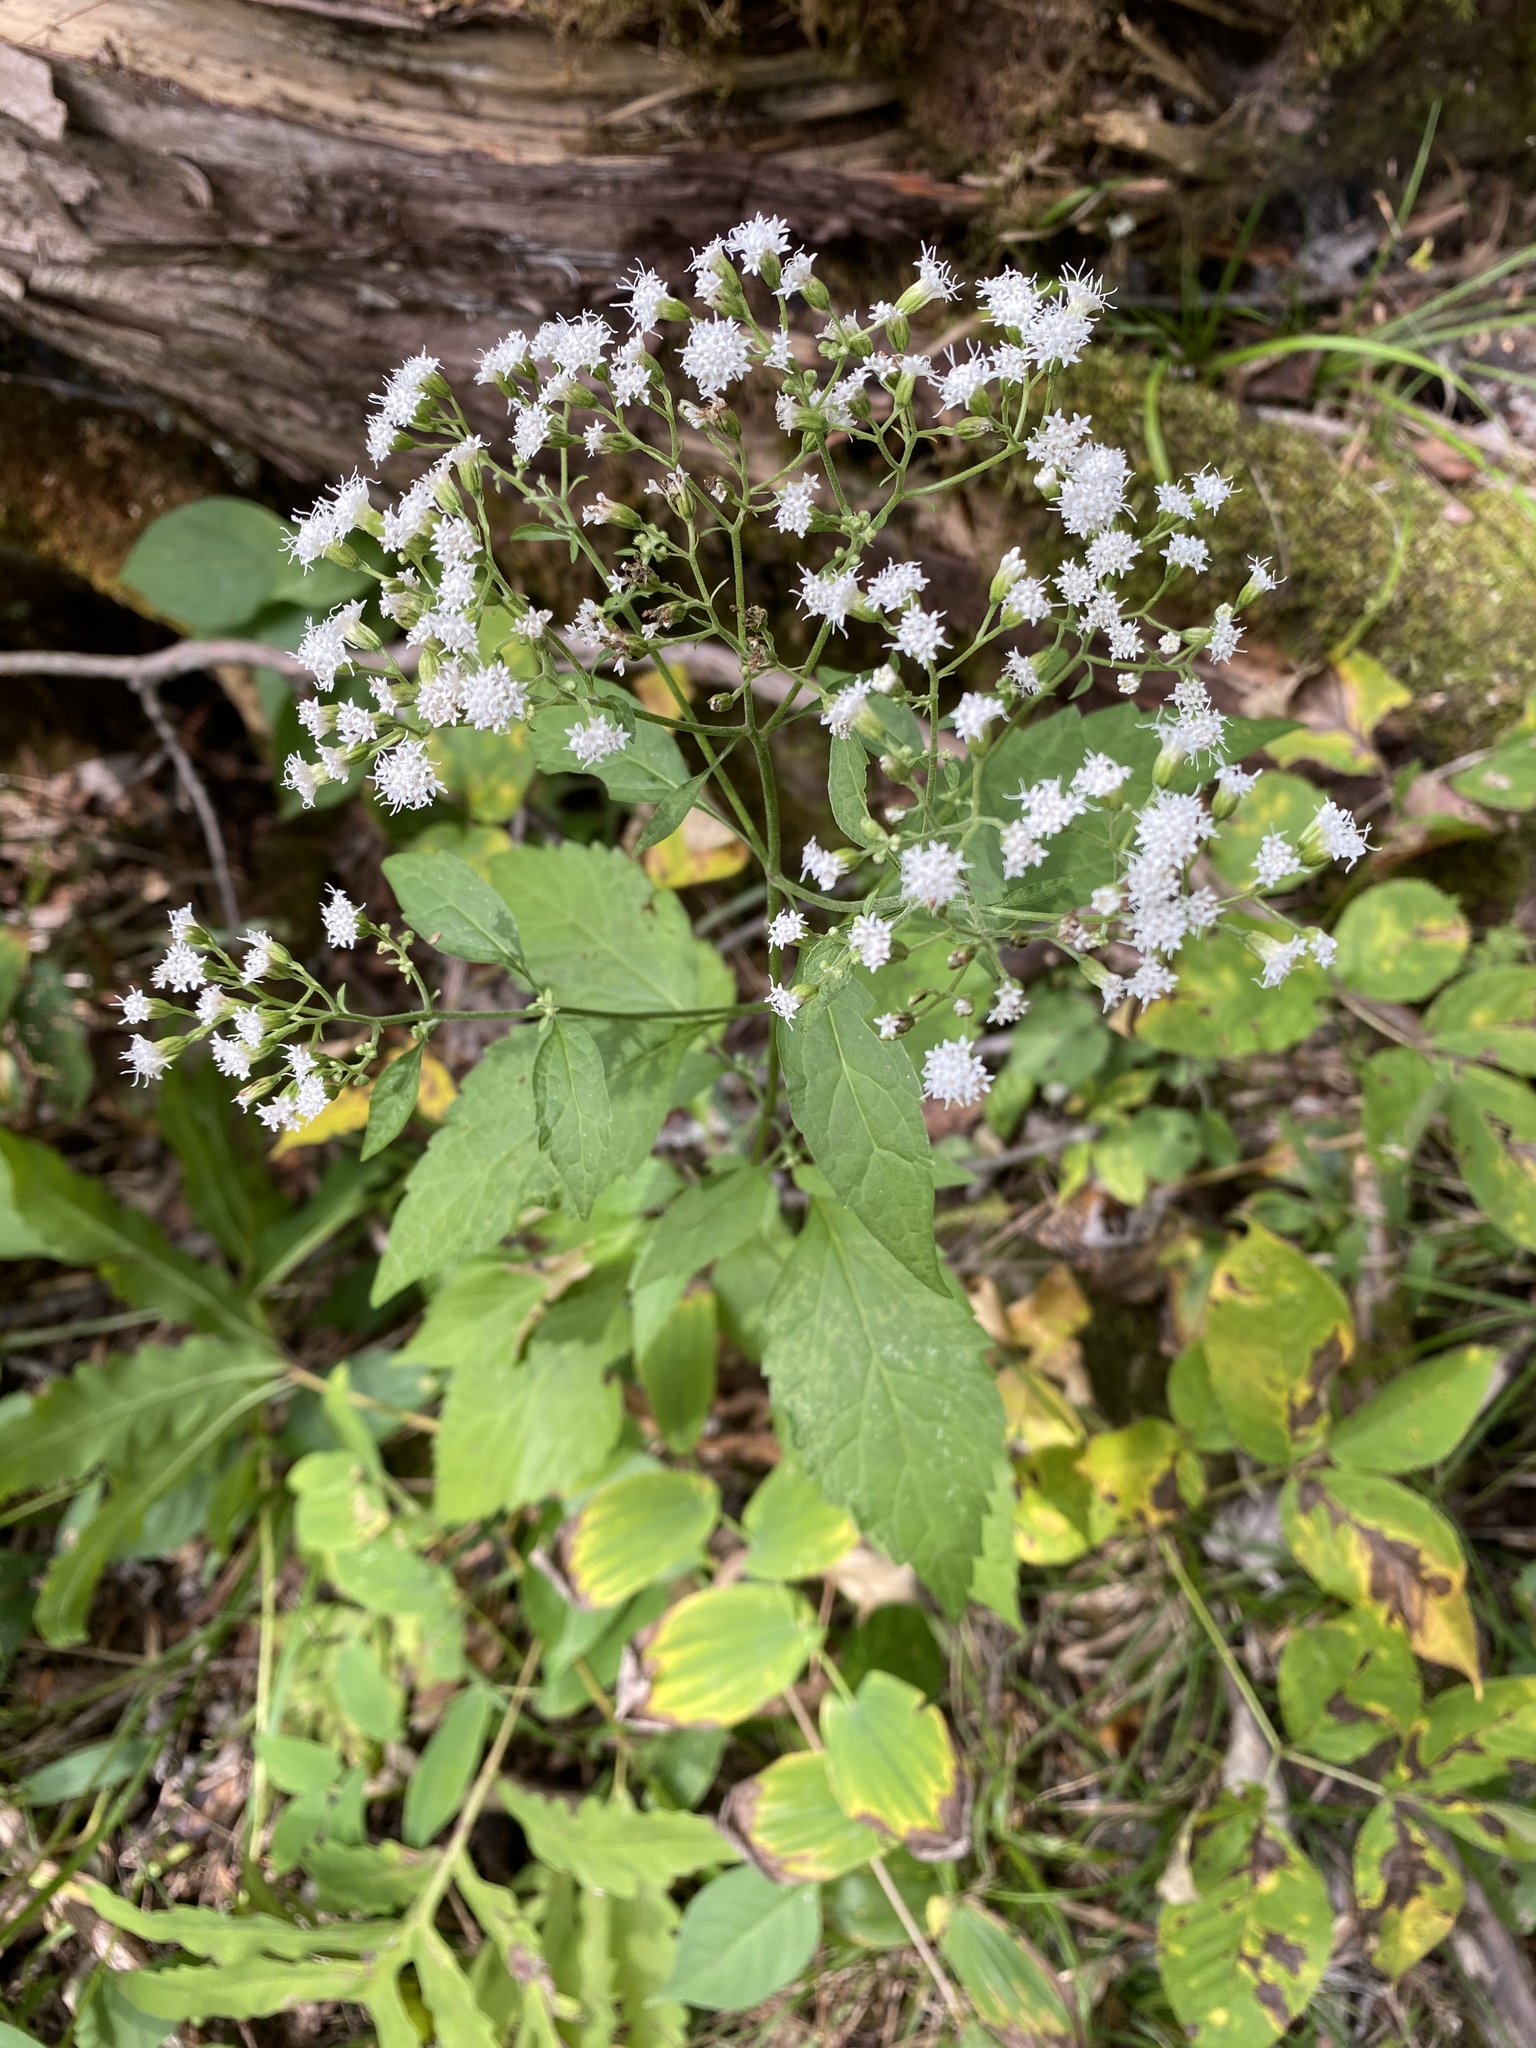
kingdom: Plantae
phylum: Tracheophyta
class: Magnoliopsida
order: Asterales
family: Asteraceae
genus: Ageratina
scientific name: Ageratina altissima
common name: White snakeroot
